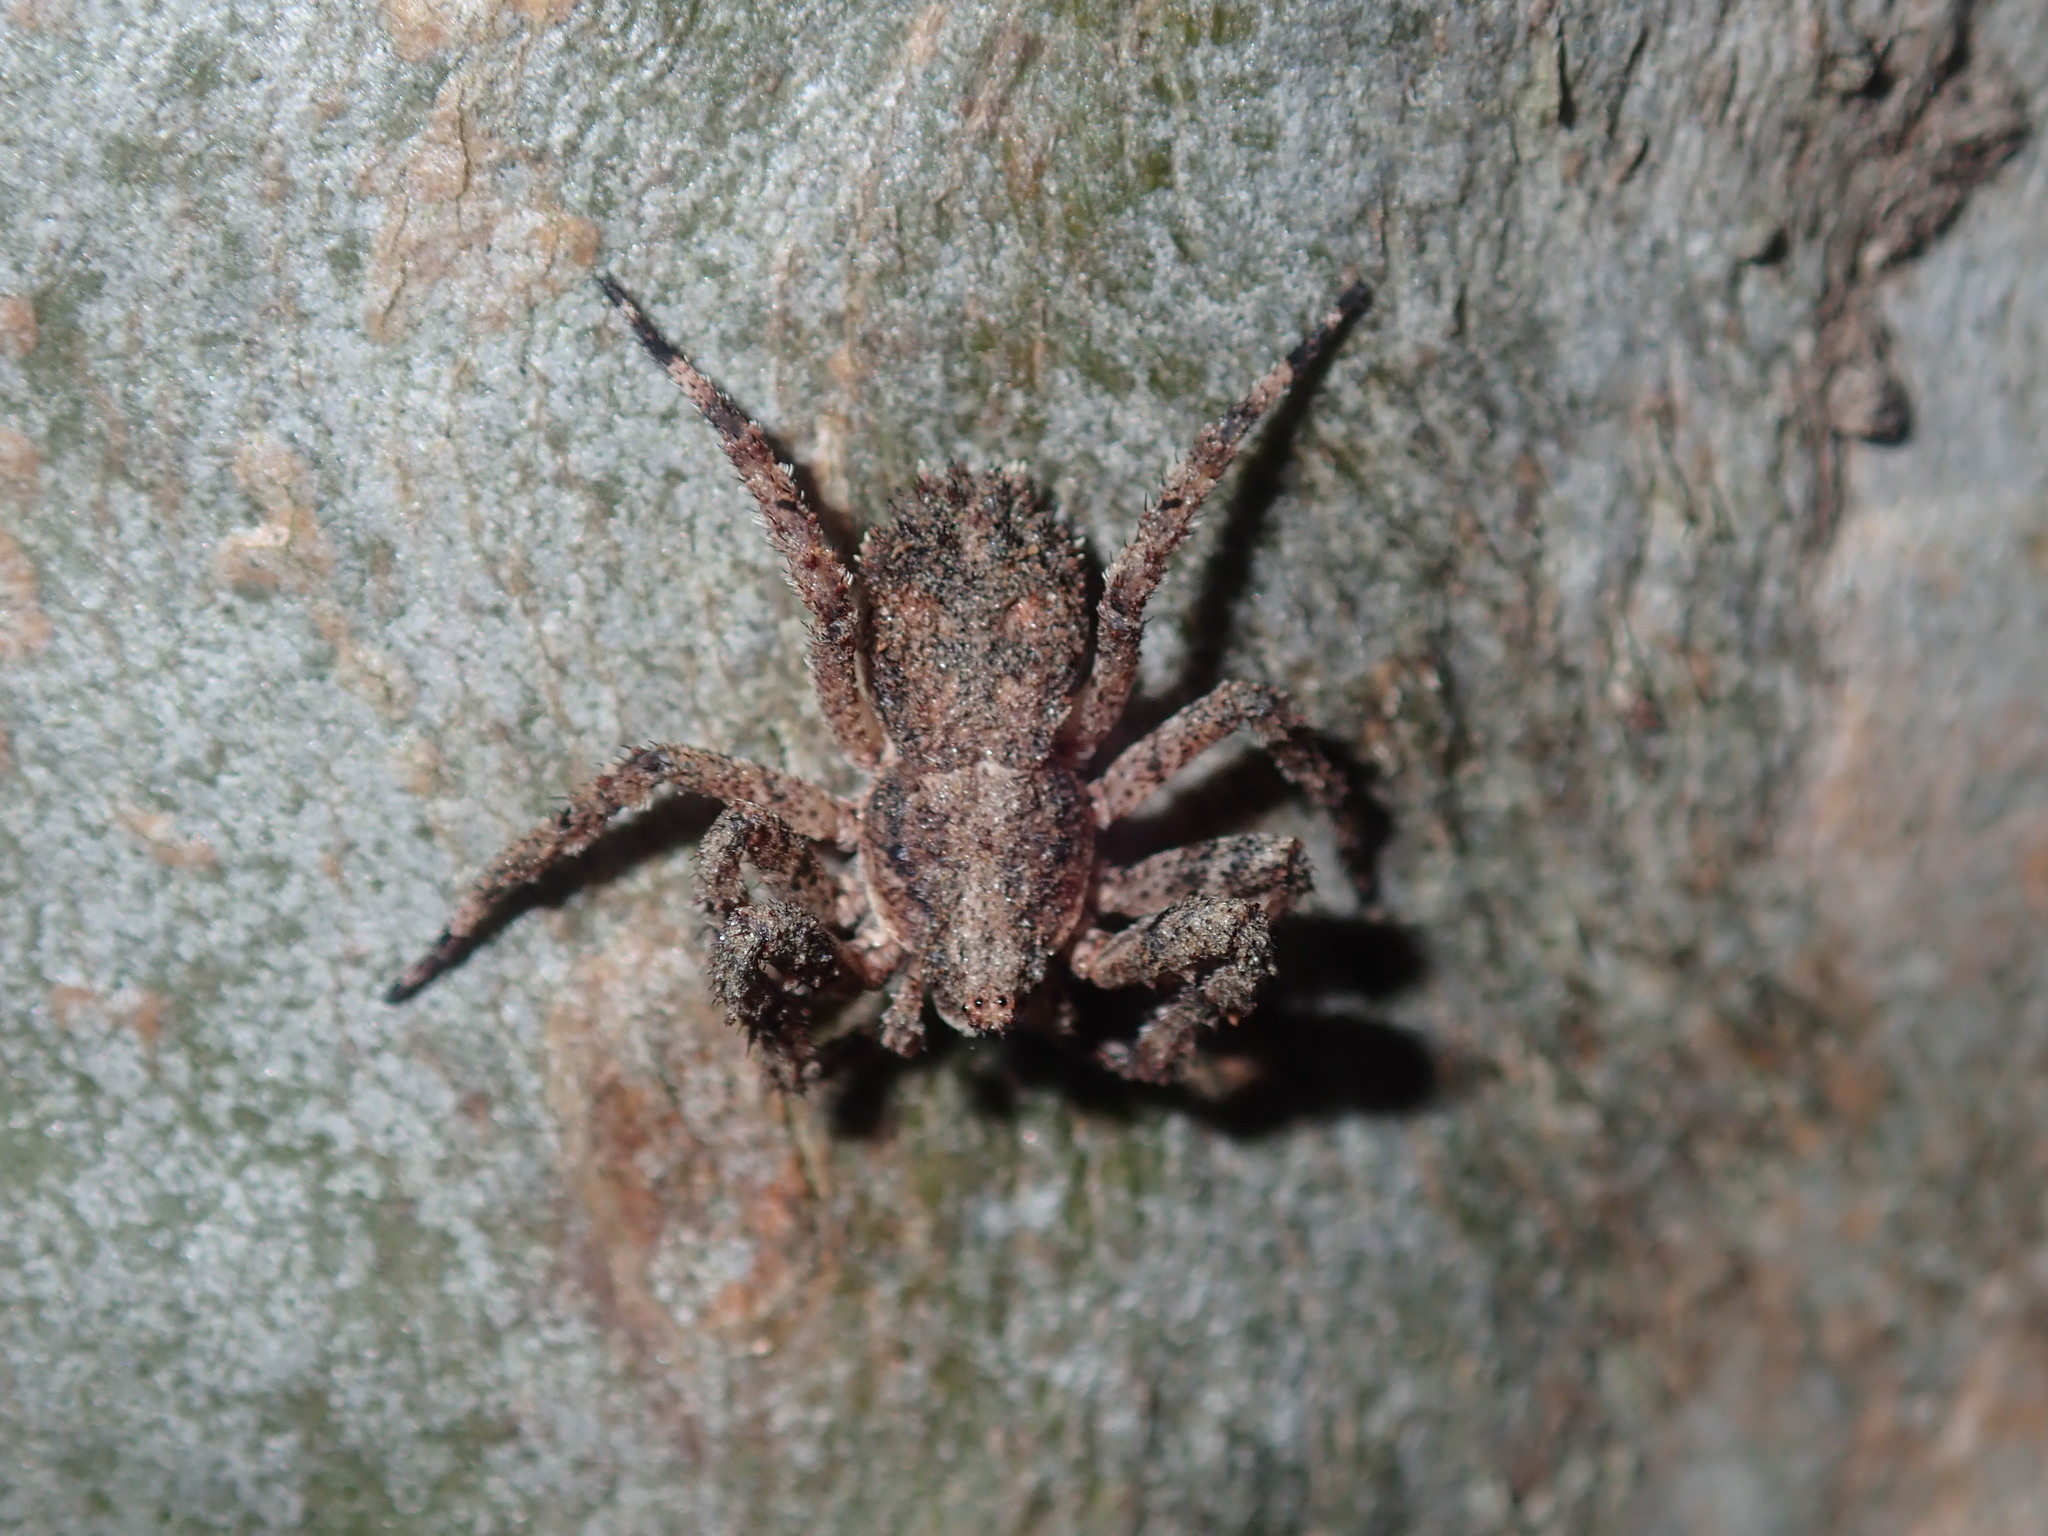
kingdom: Animalia
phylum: Arthropoda
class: Arachnida
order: Araneae
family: Thomisidae
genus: Stephanopis
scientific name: Stephanopis altifrons
